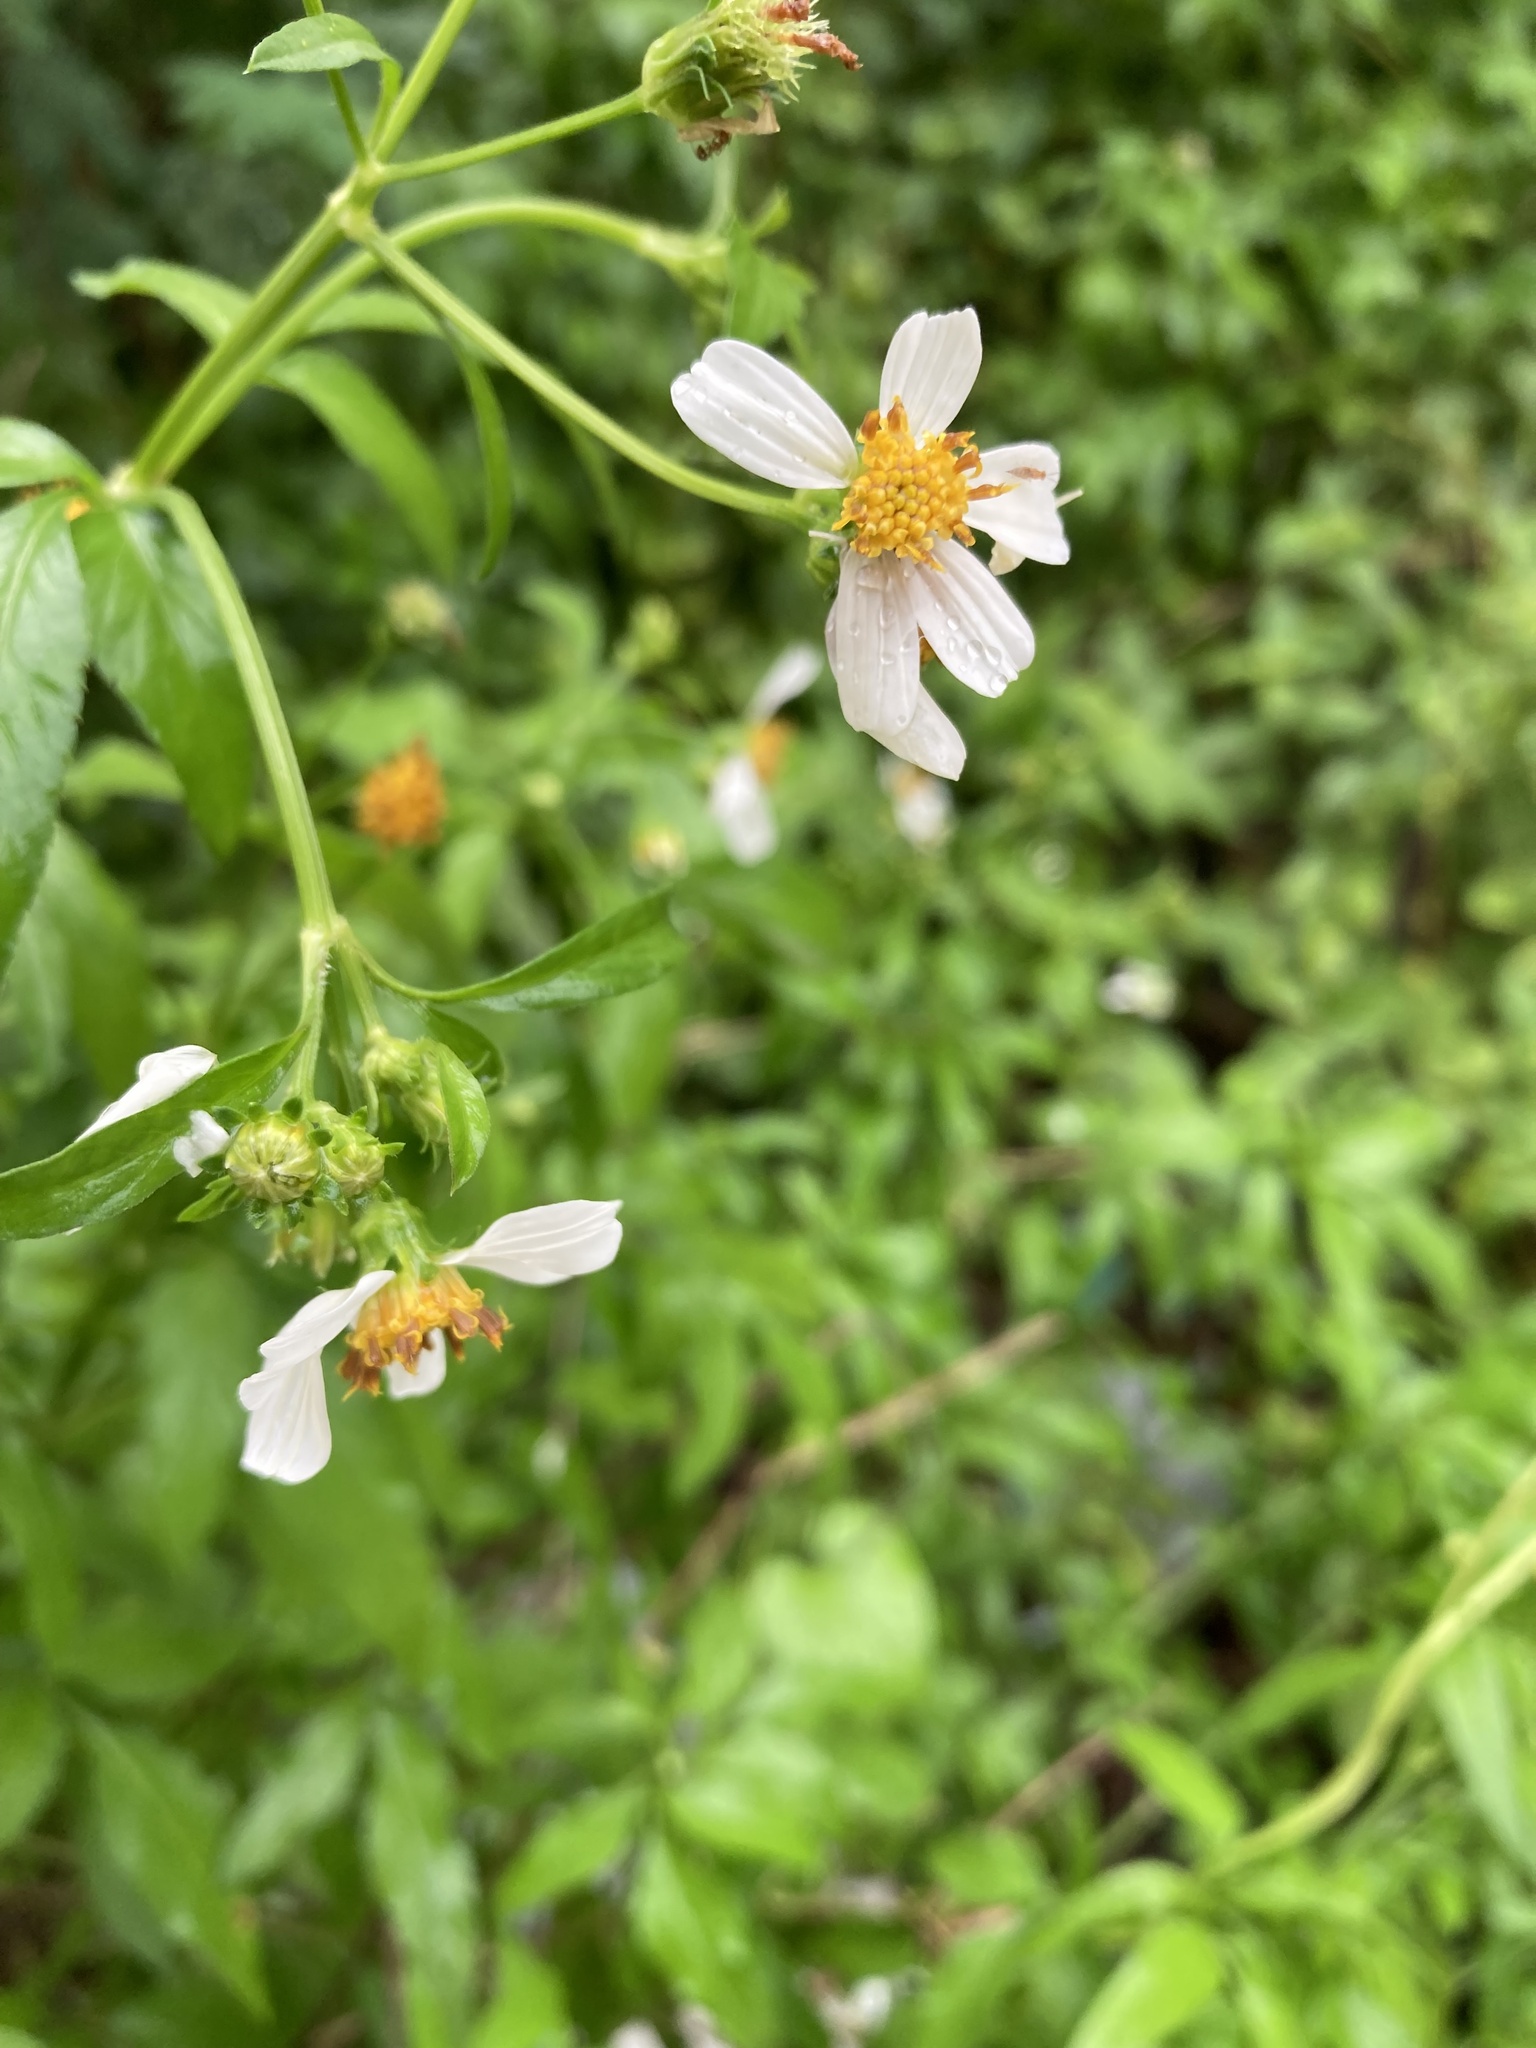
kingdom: Plantae
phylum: Tracheophyta
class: Magnoliopsida
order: Asterales
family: Asteraceae
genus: Bidens
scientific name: Bidens alba
